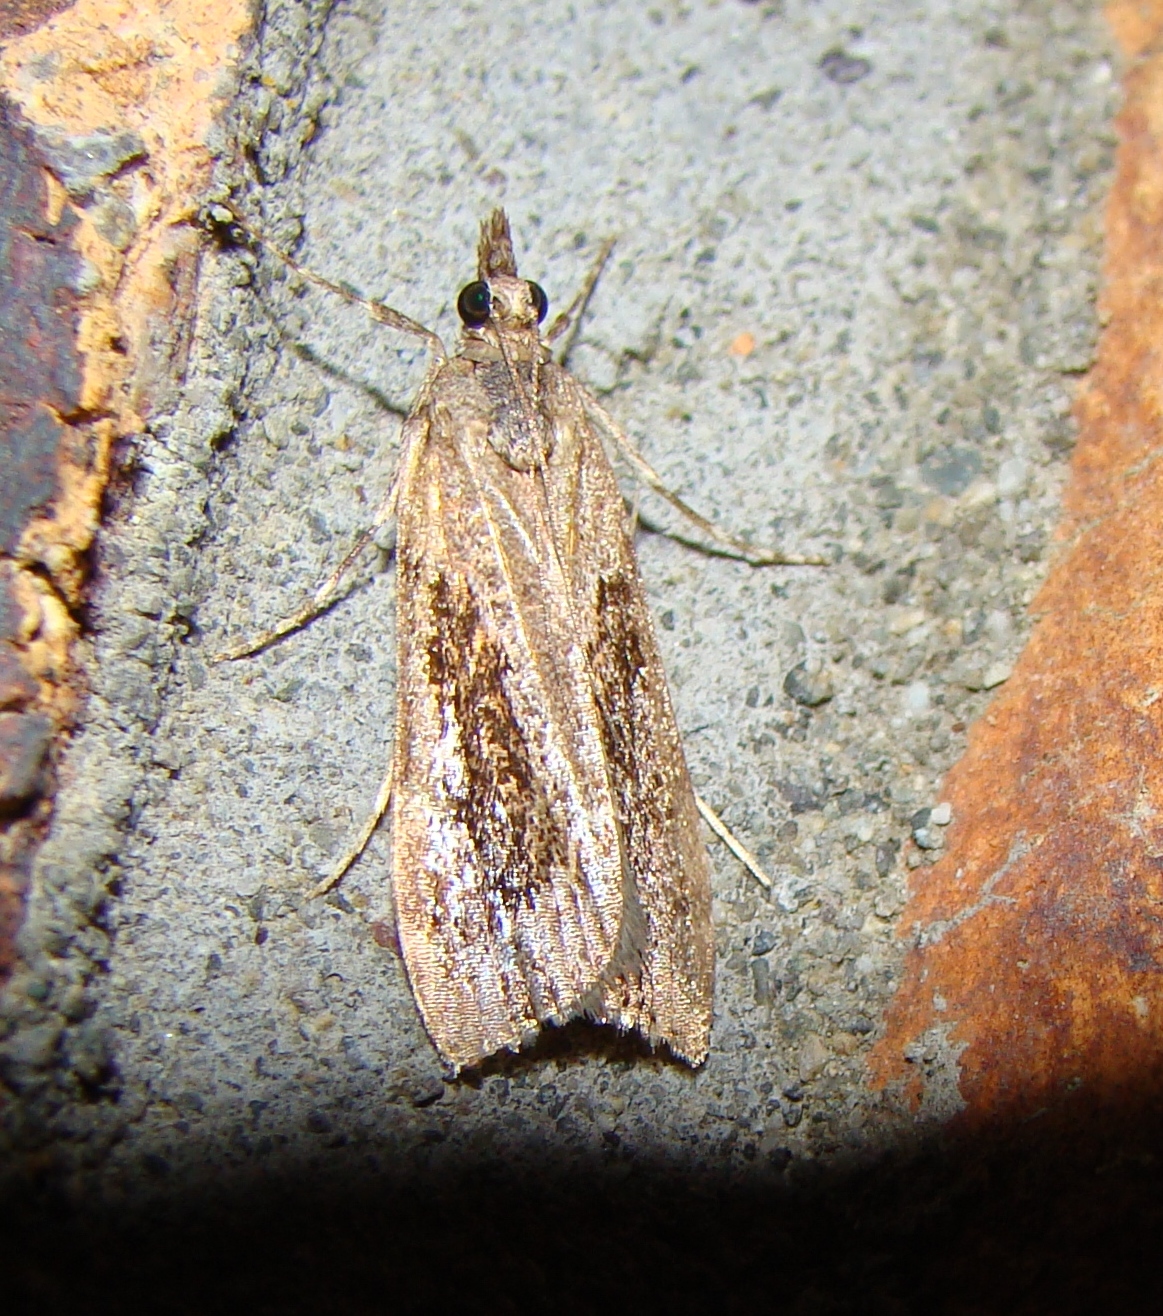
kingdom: Animalia
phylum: Arthropoda
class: Insecta
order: Lepidoptera
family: Crambidae
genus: Eudonia
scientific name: Eudonia submarginalis
